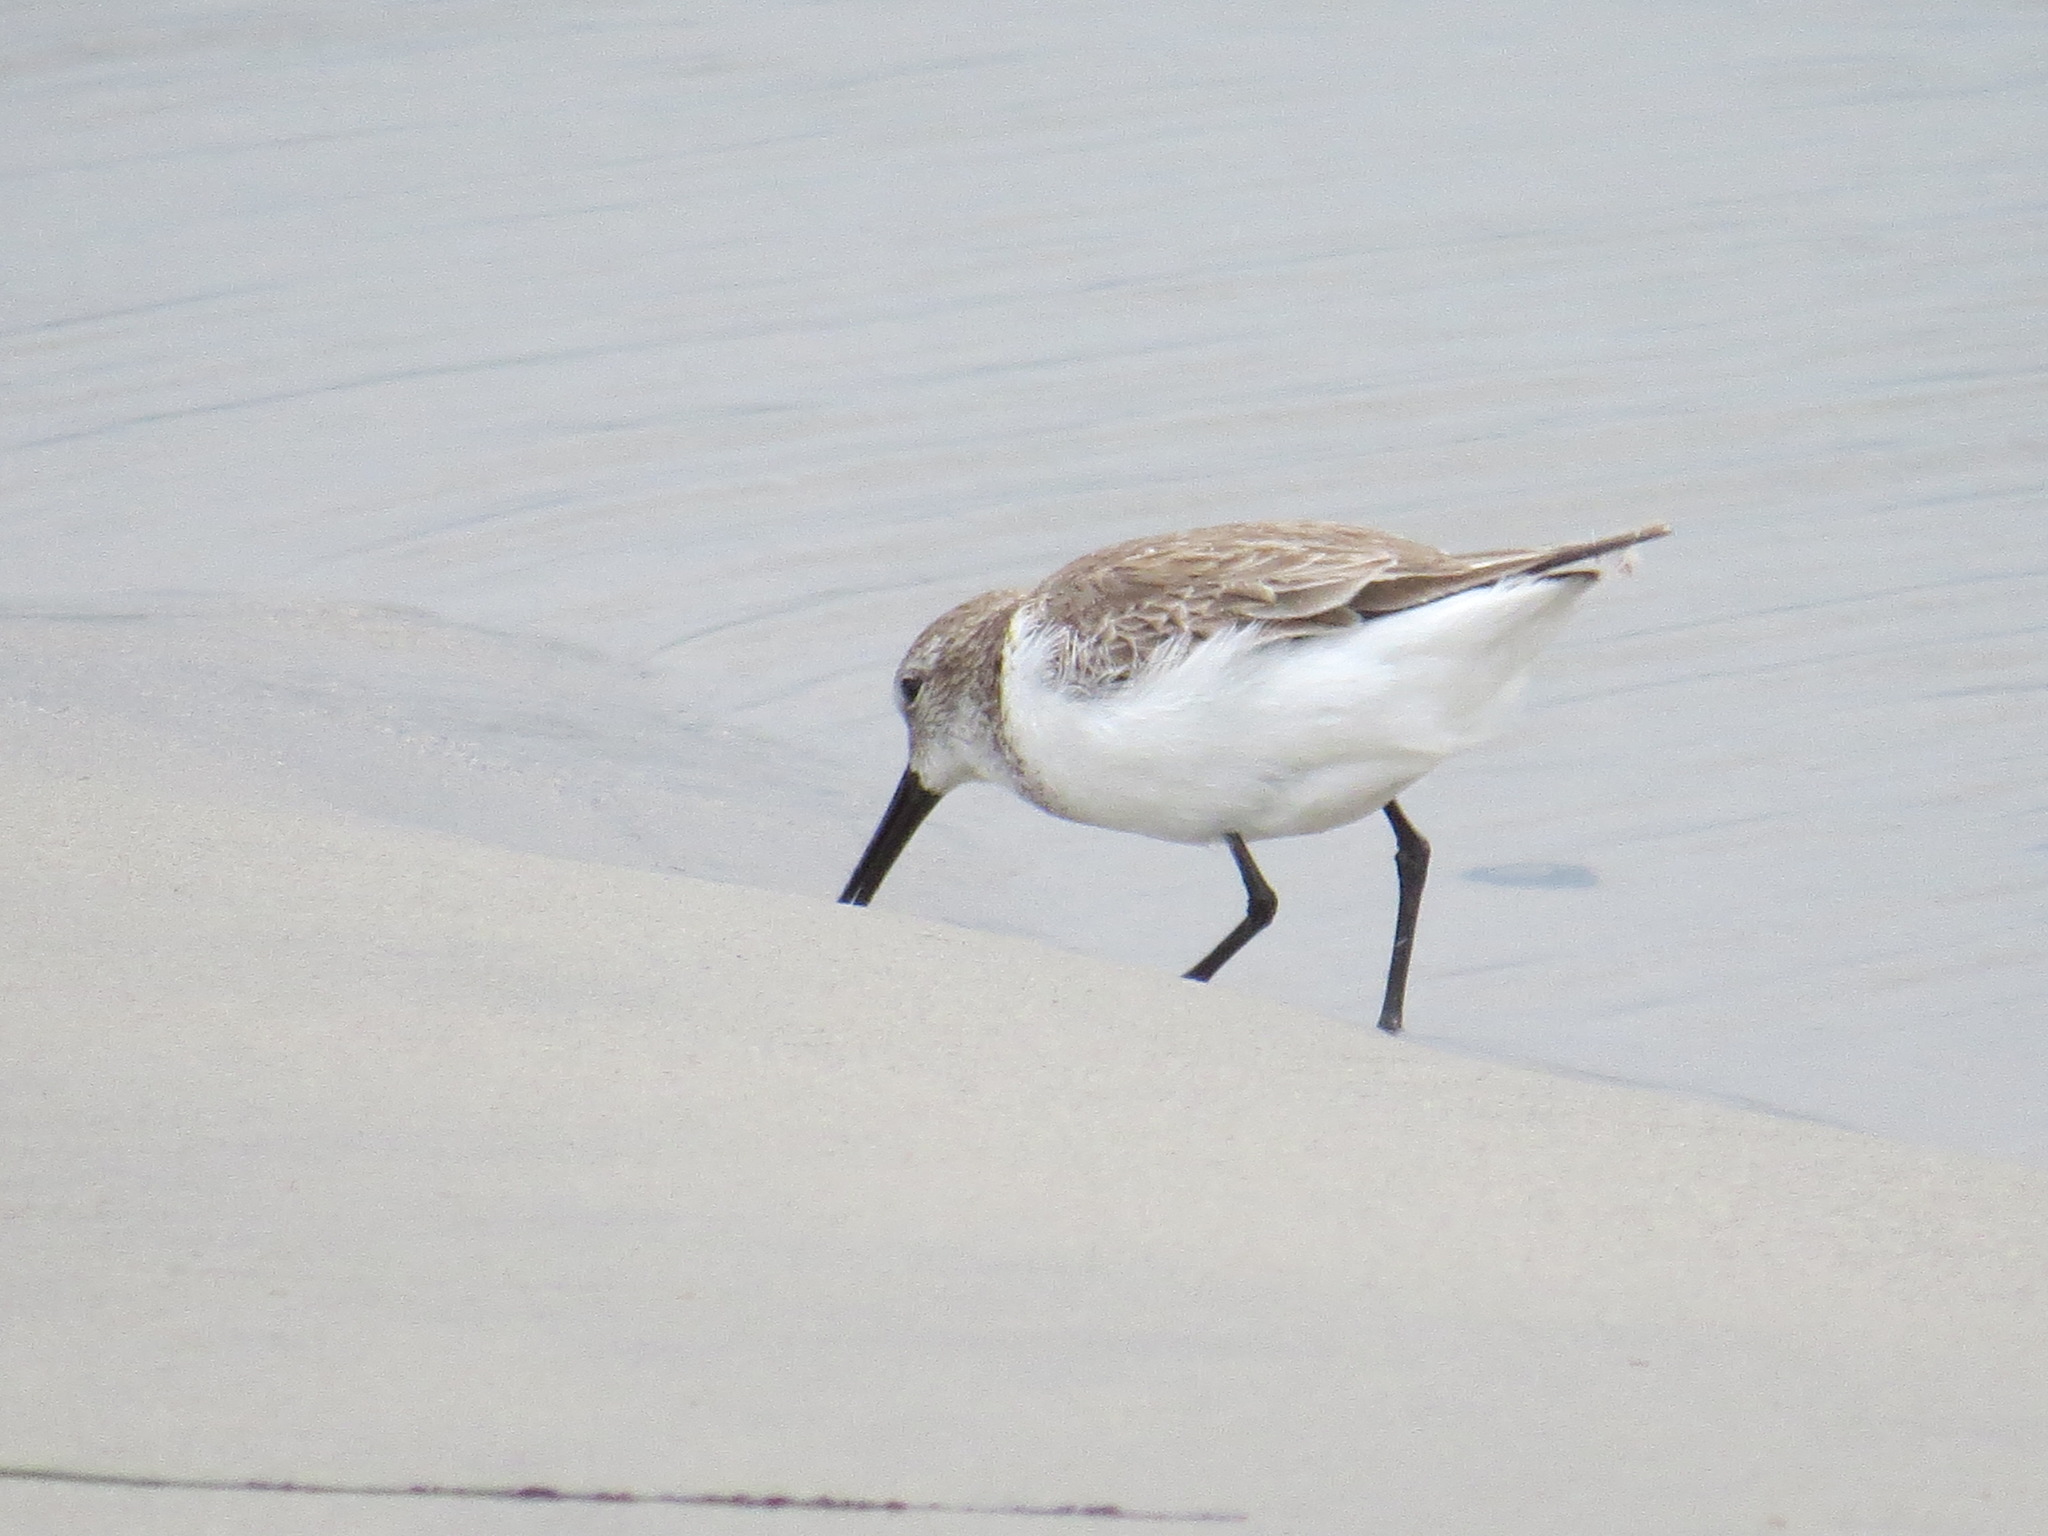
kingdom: Animalia
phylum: Chordata
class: Aves
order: Charadriiformes
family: Scolopacidae
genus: Calidris
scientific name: Calidris mauri
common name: Western sandpiper
